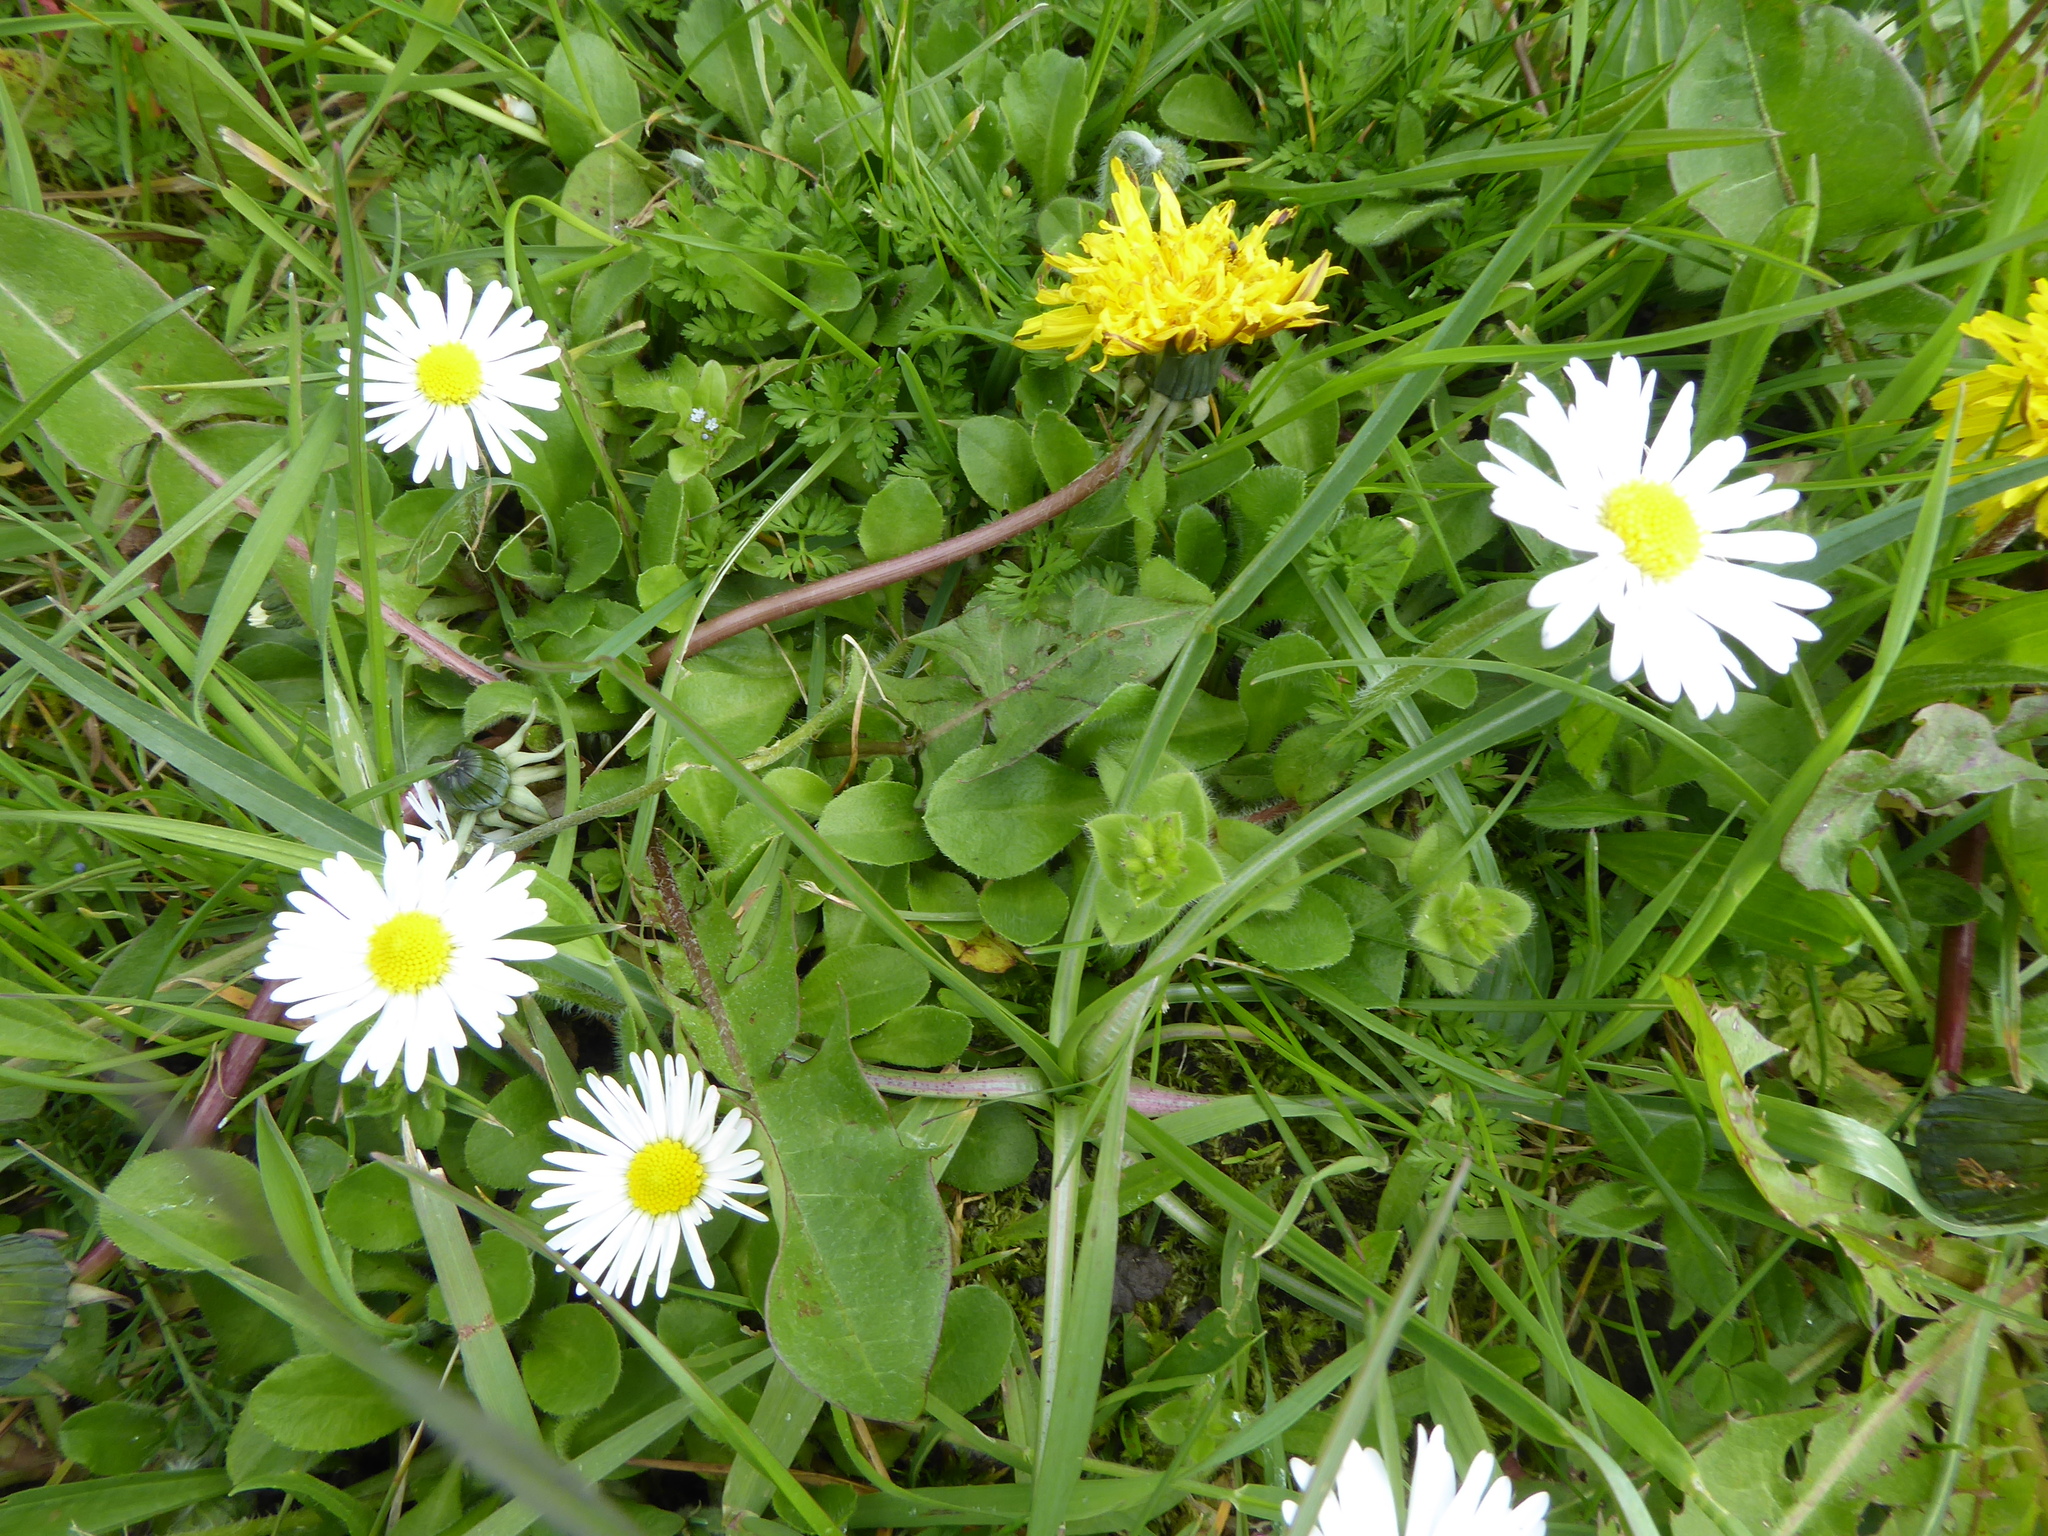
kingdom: Plantae
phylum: Tracheophyta
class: Magnoliopsida
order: Asterales
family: Asteraceae
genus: Bellis
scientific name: Bellis perennis
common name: Lawndaisy
